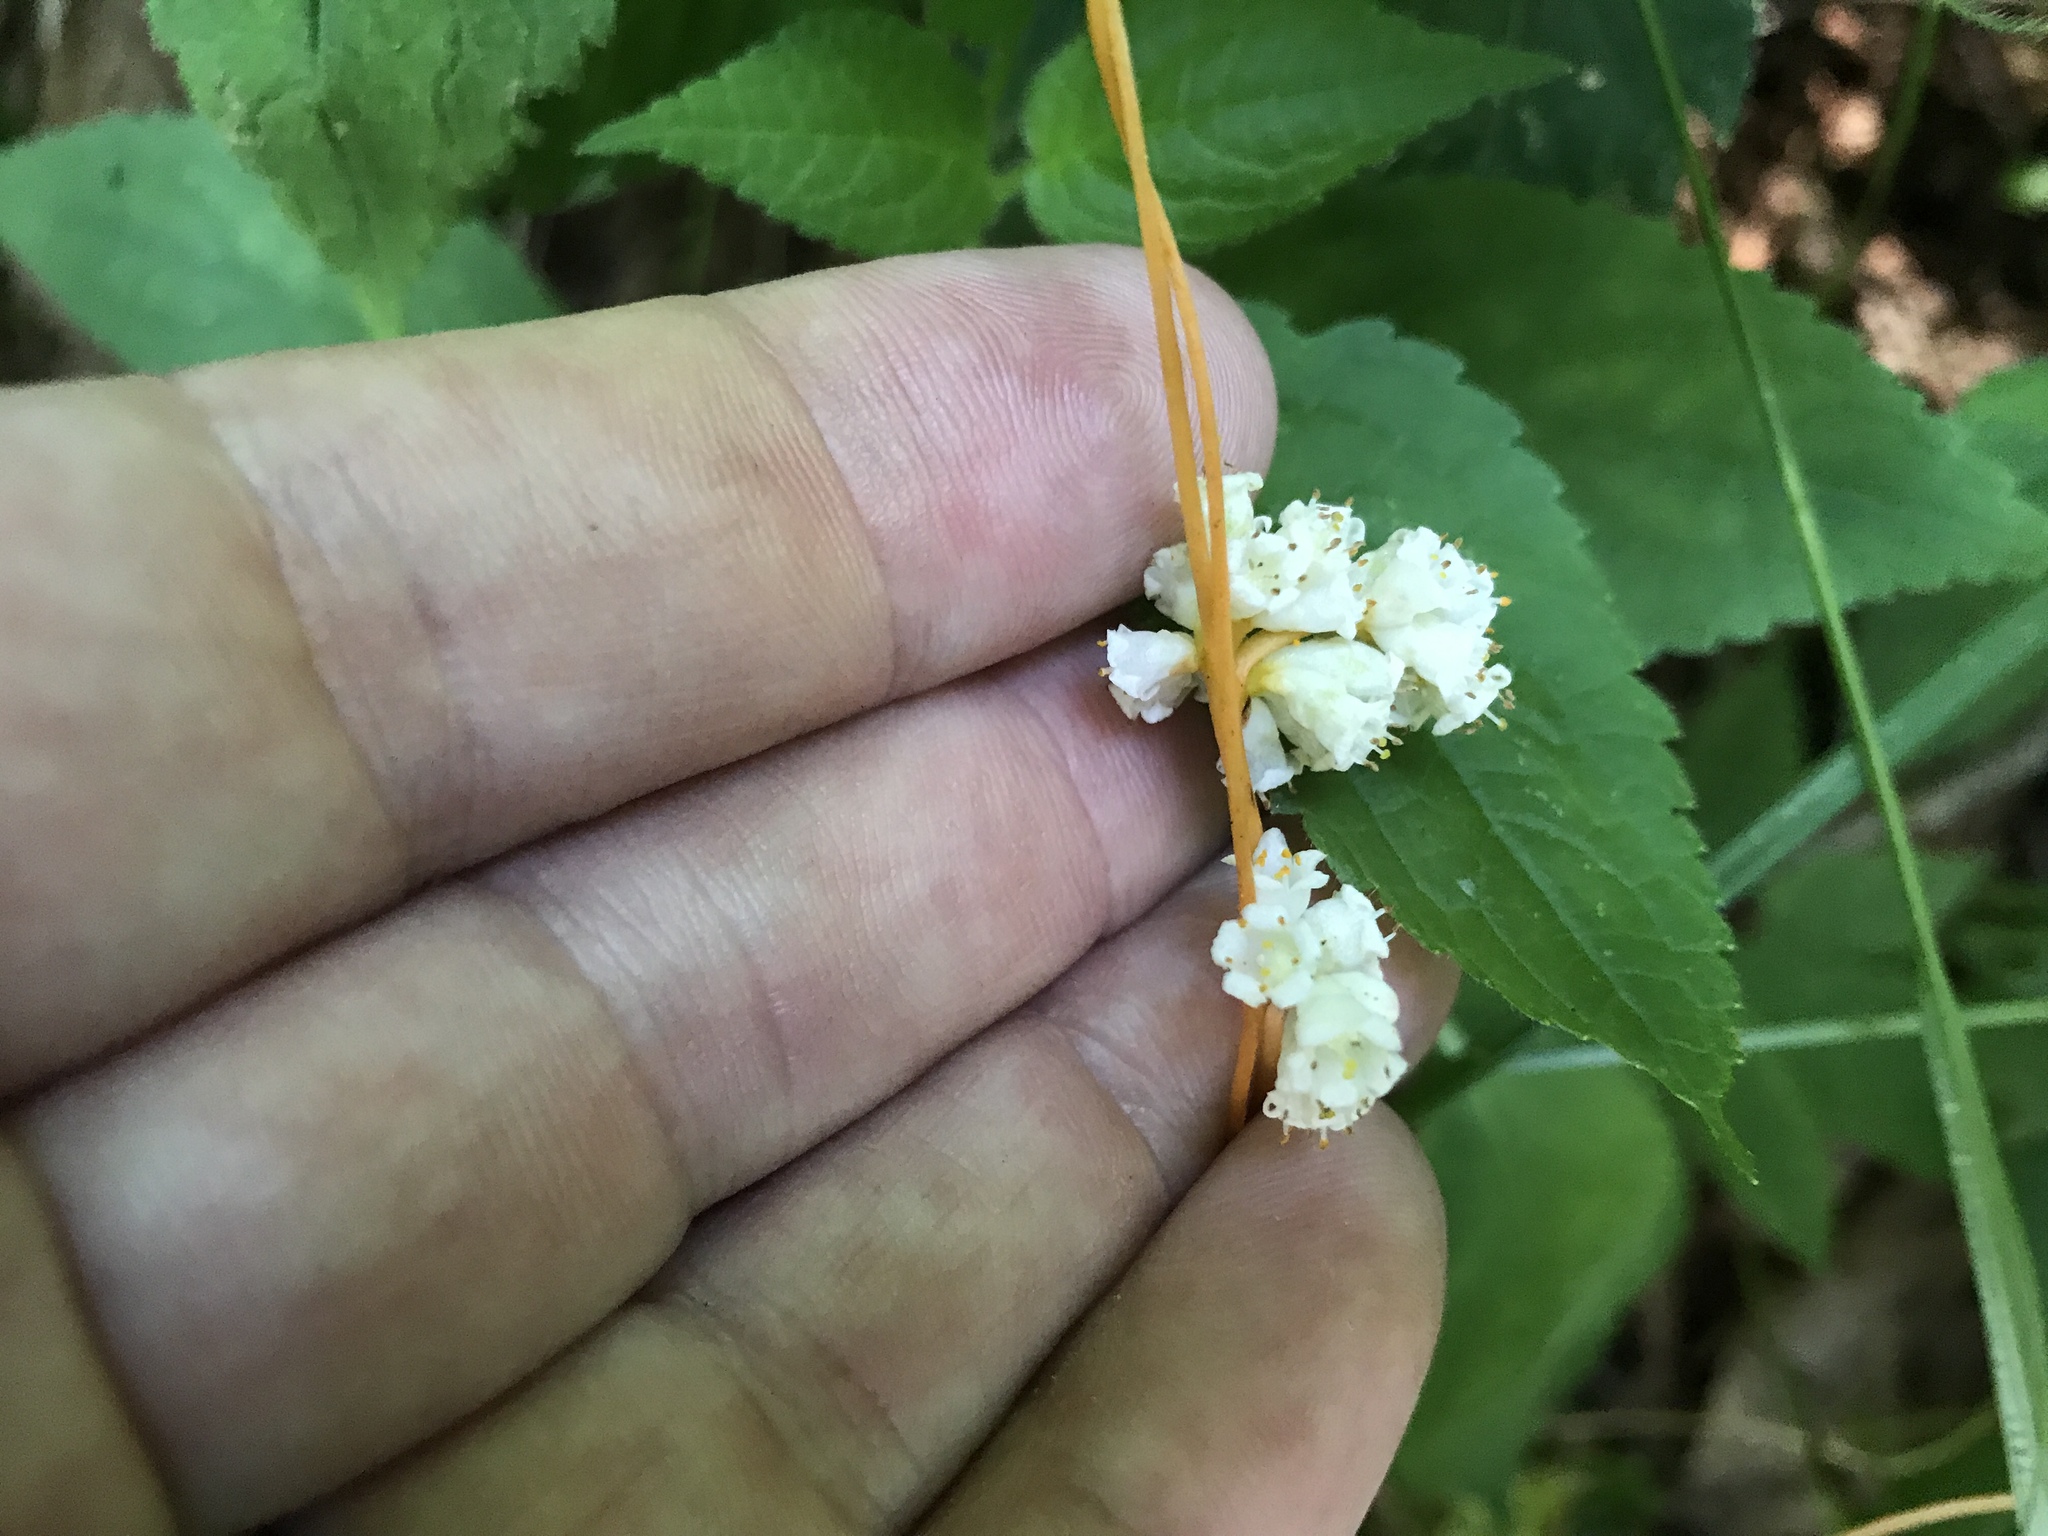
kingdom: Plantae
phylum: Tracheophyta
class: Magnoliopsida
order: Solanales
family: Convolvulaceae
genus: Cuscuta
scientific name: Cuscuta rostrata
